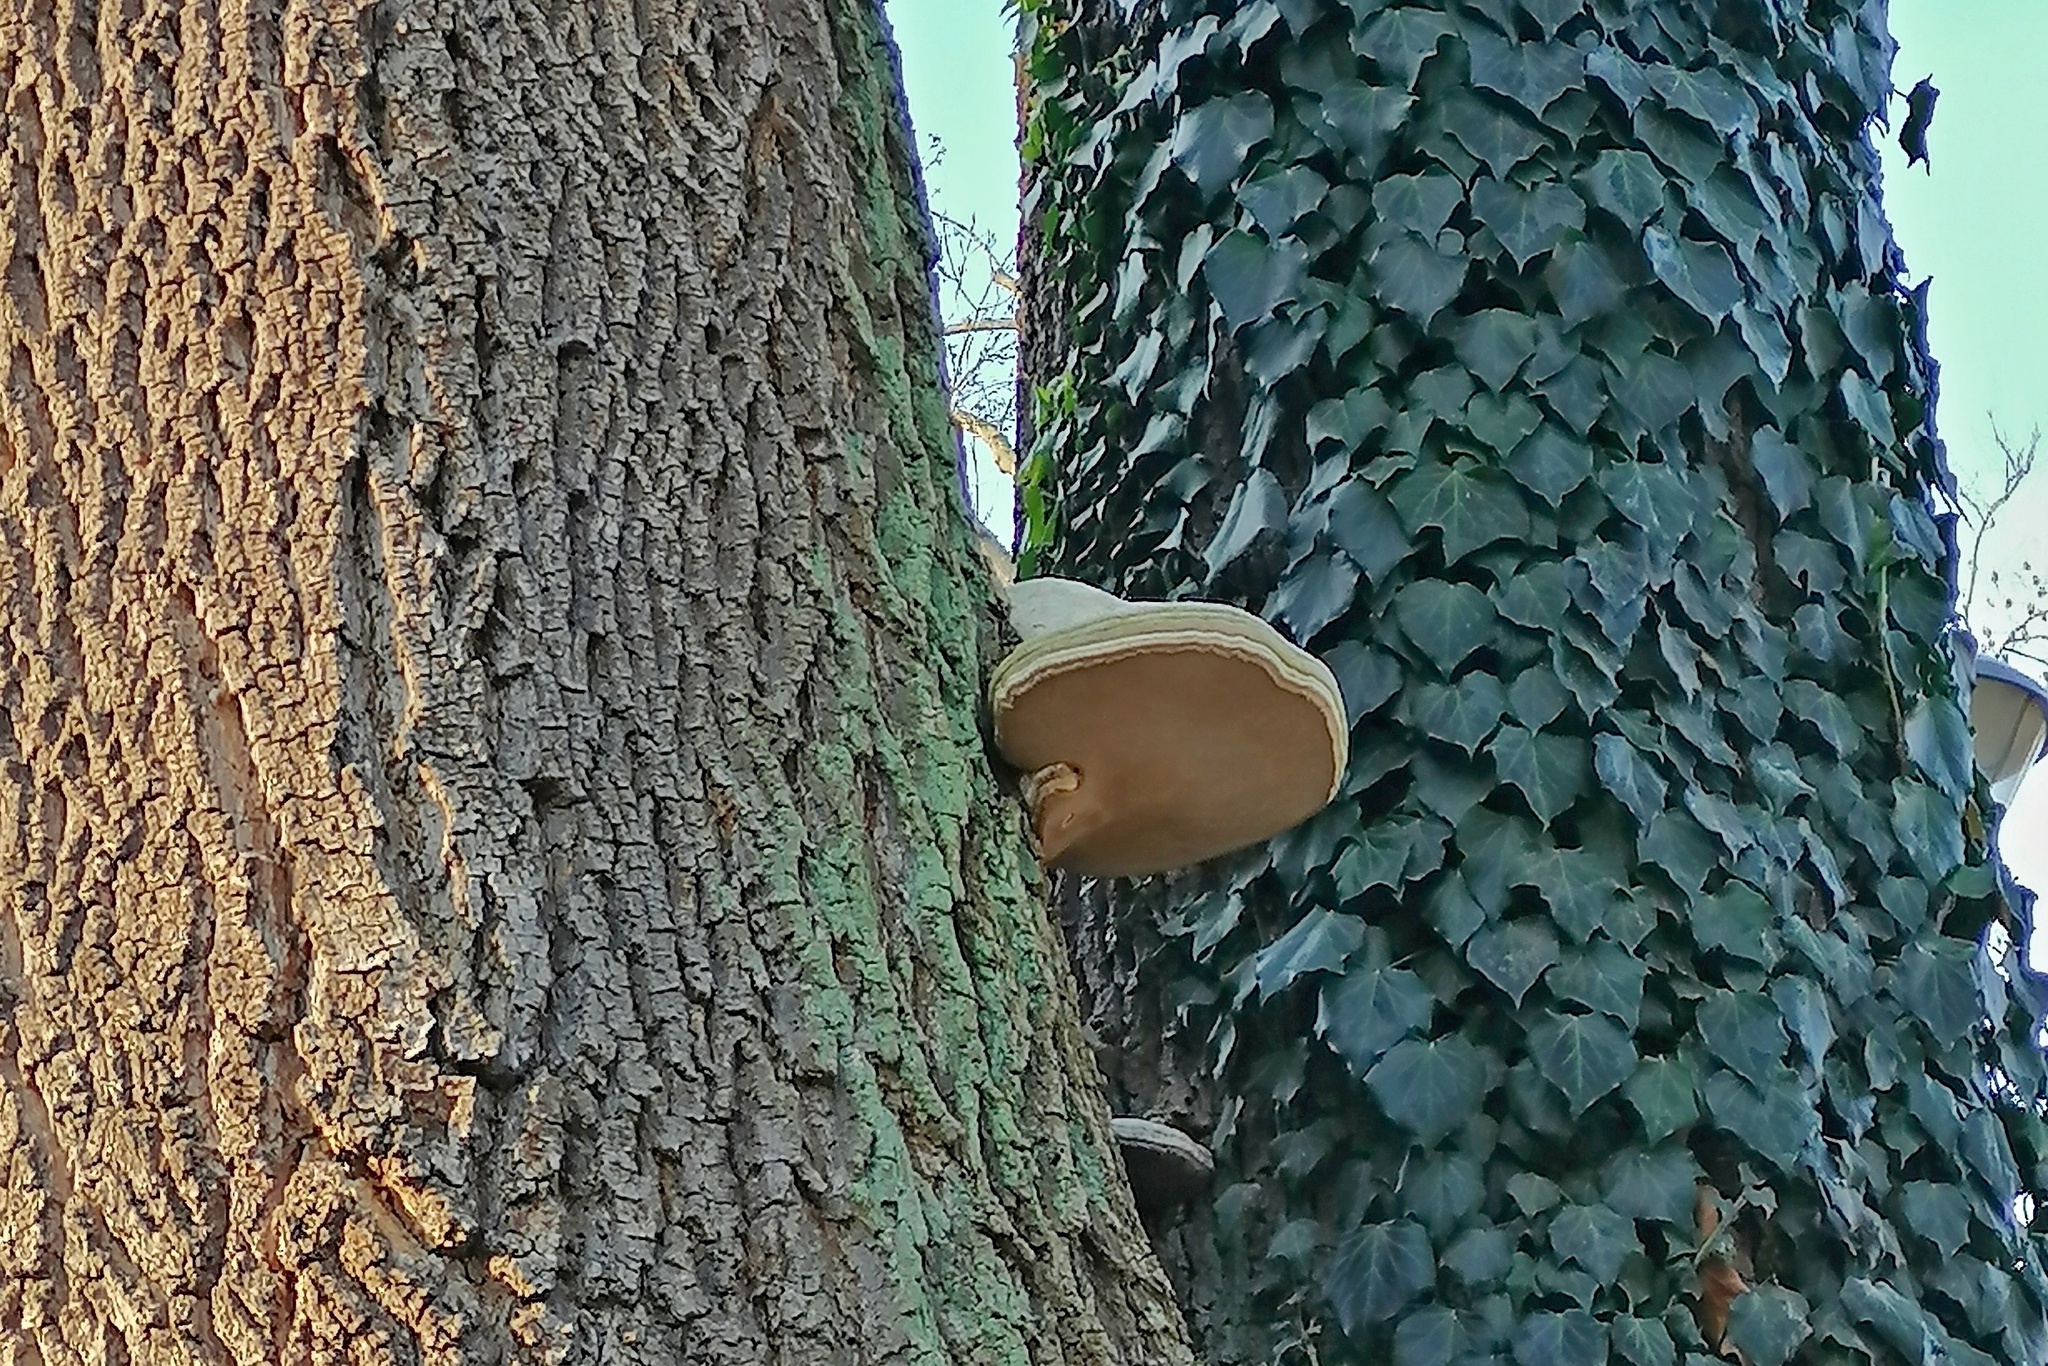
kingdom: Fungi
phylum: Basidiomycota
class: Agaricomycetes
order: Polyporales
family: Polyporaceae
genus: Fomes
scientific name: Fomes fomentarius
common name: Hoof fungus
